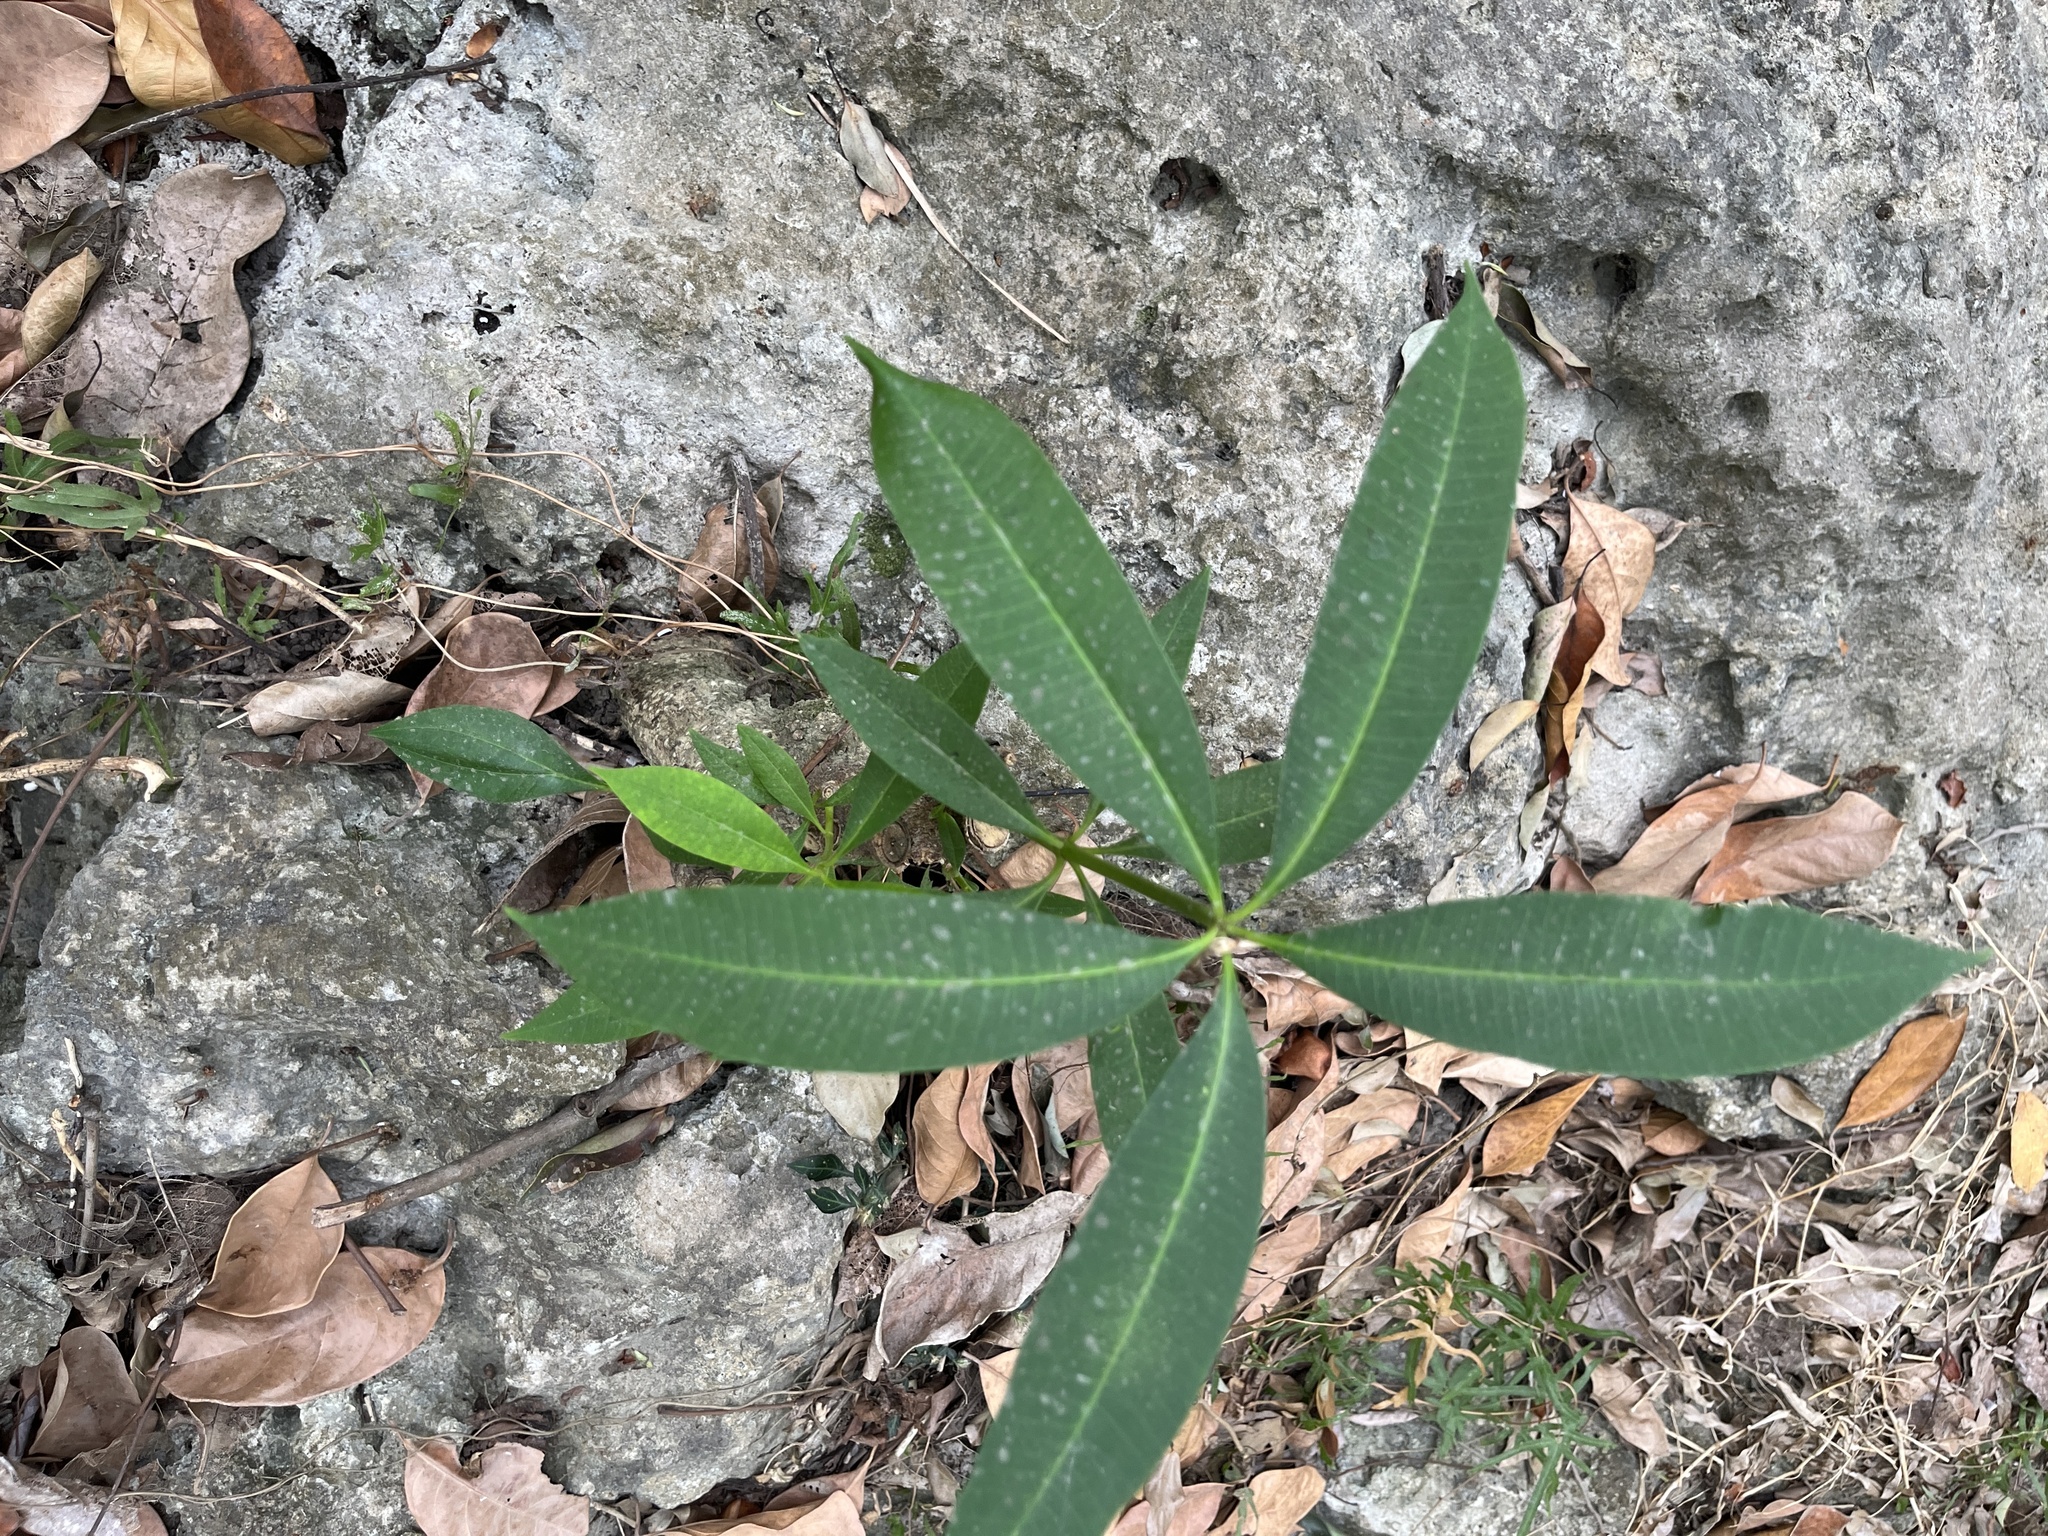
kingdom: Plantae
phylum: Tracheophyta
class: Magnoliopsida
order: Gentianales
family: Apocynaceae
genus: Alstonia
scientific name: Alstonia scholaris
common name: White cheesewood
